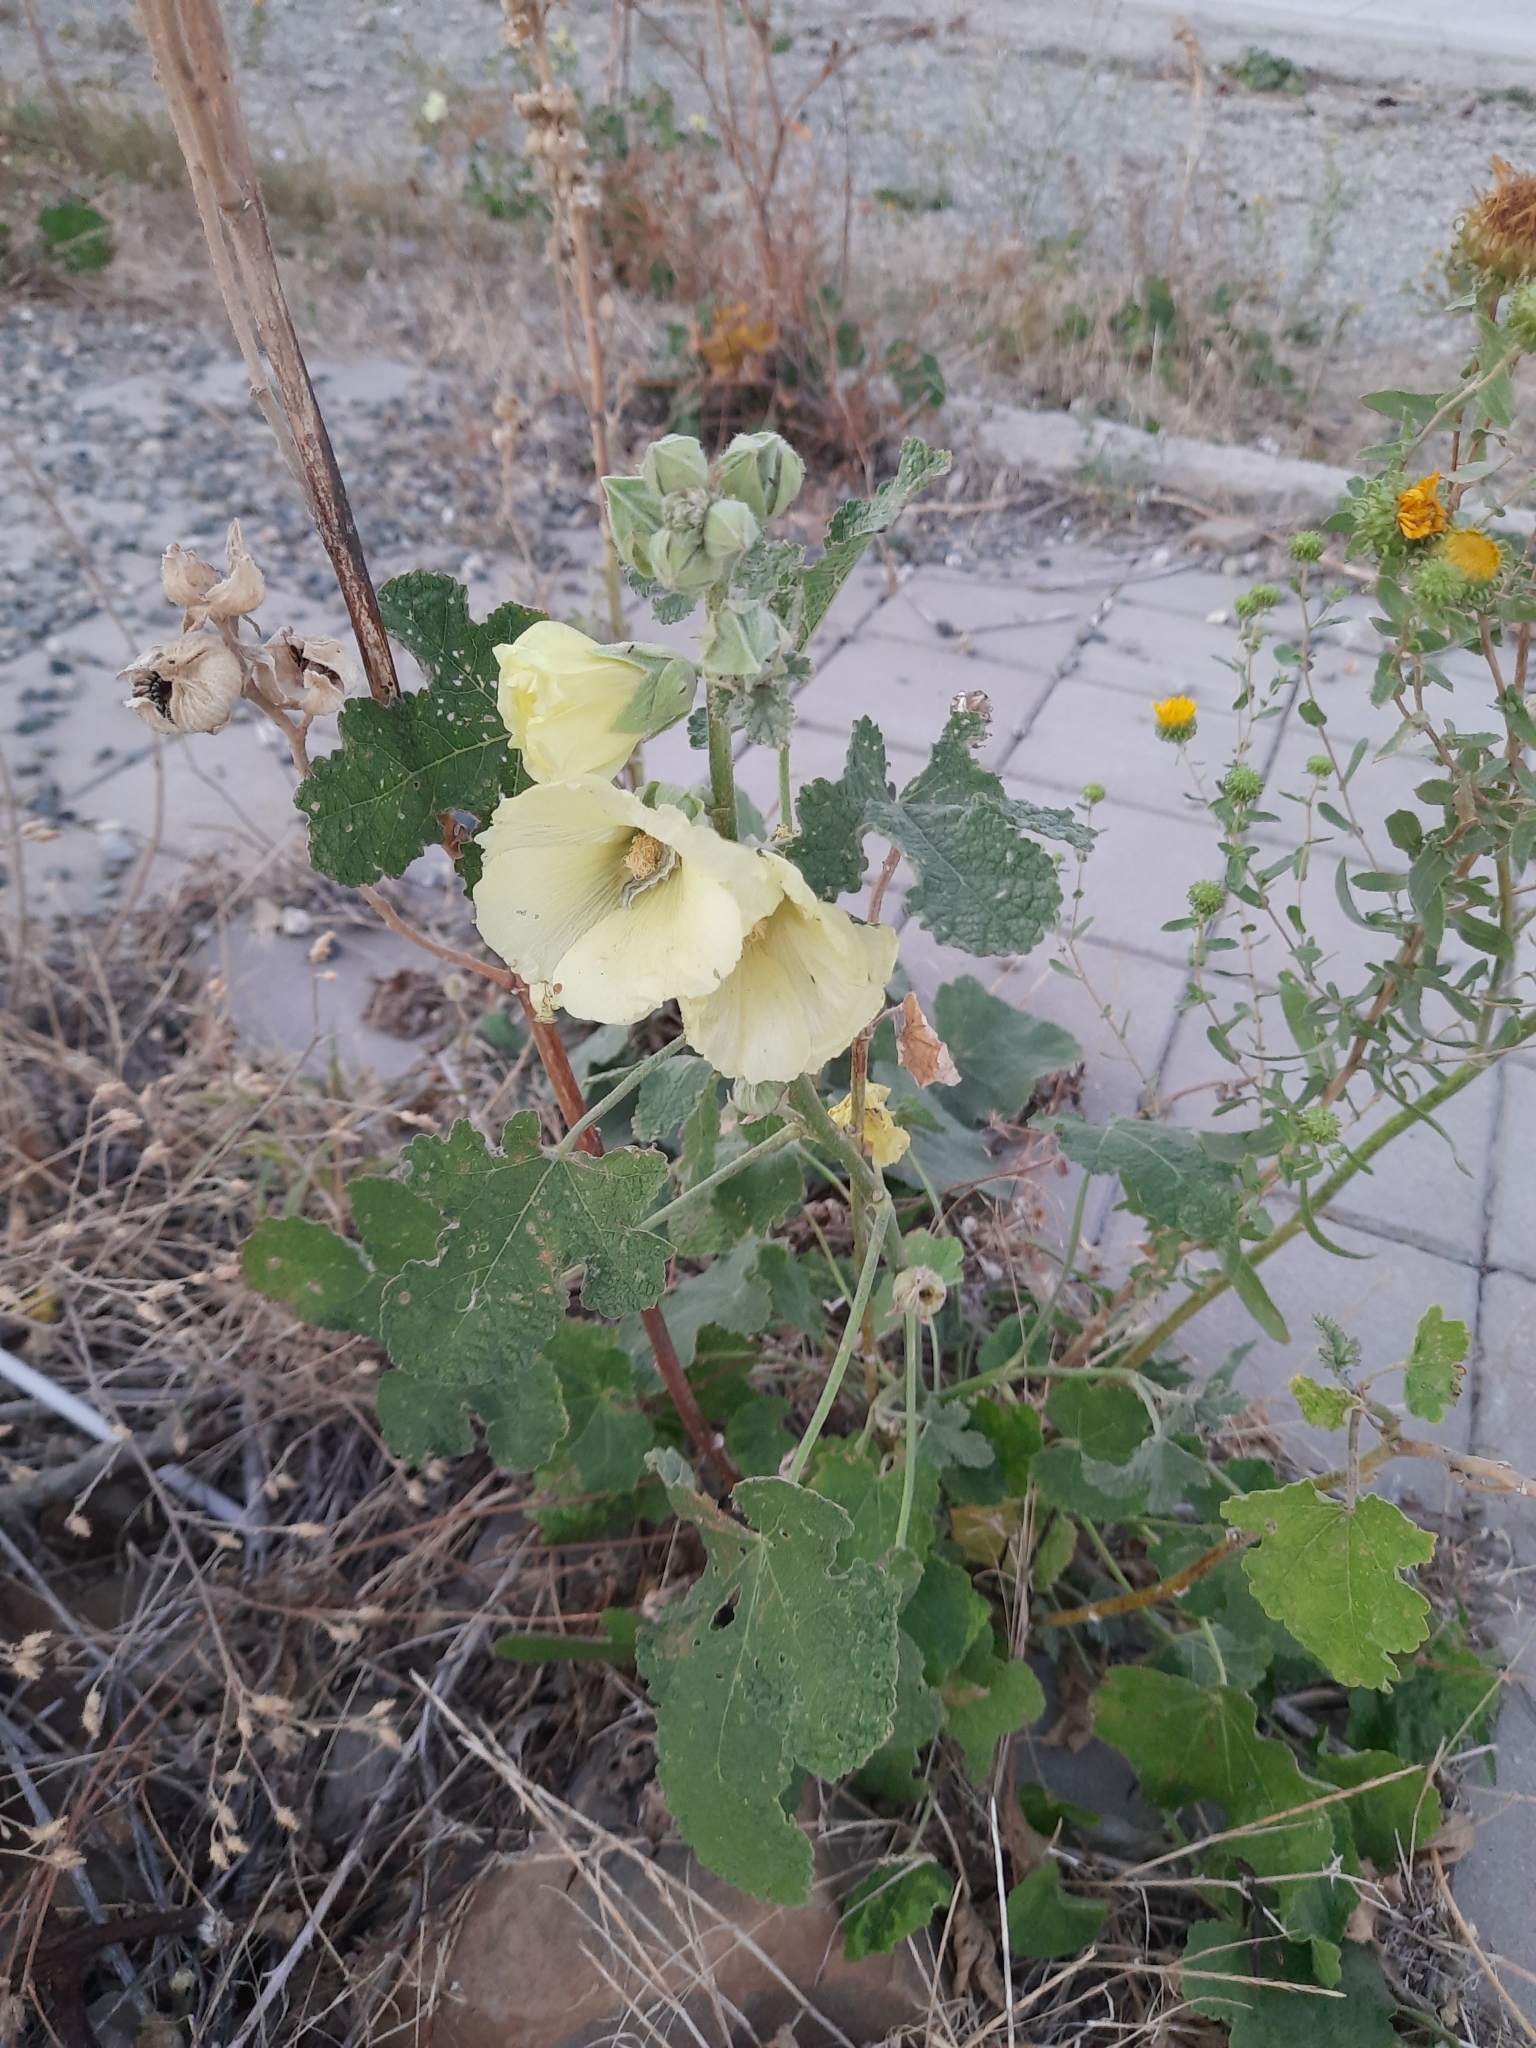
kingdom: Plantae
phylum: Tracheophyta
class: Magnoliopsida
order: Malvales
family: Malvaceae
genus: Alcea
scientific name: Alcea rugosa
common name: Russian hollyhock
